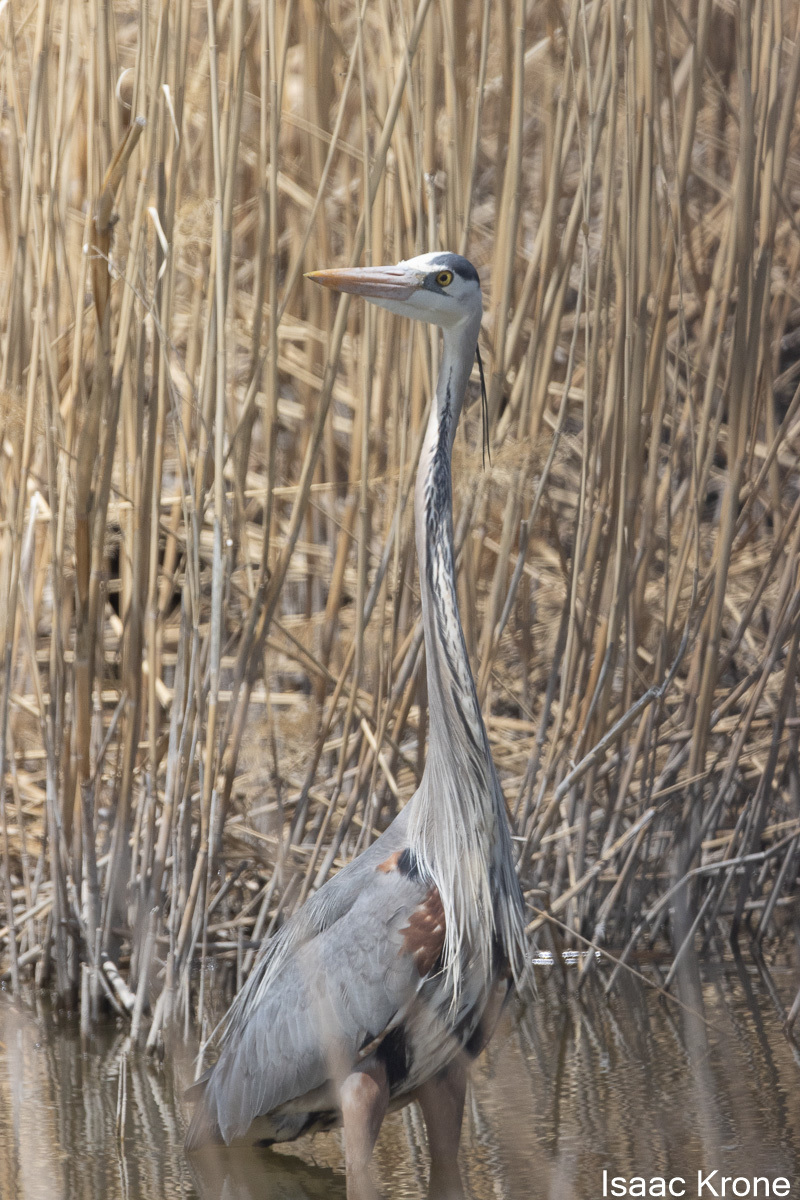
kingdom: Animalia
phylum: Chordata
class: Aves
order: Pelecaniformes
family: Ardeidae
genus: Ardea
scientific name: Ardea herodias
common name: Great blue heron
